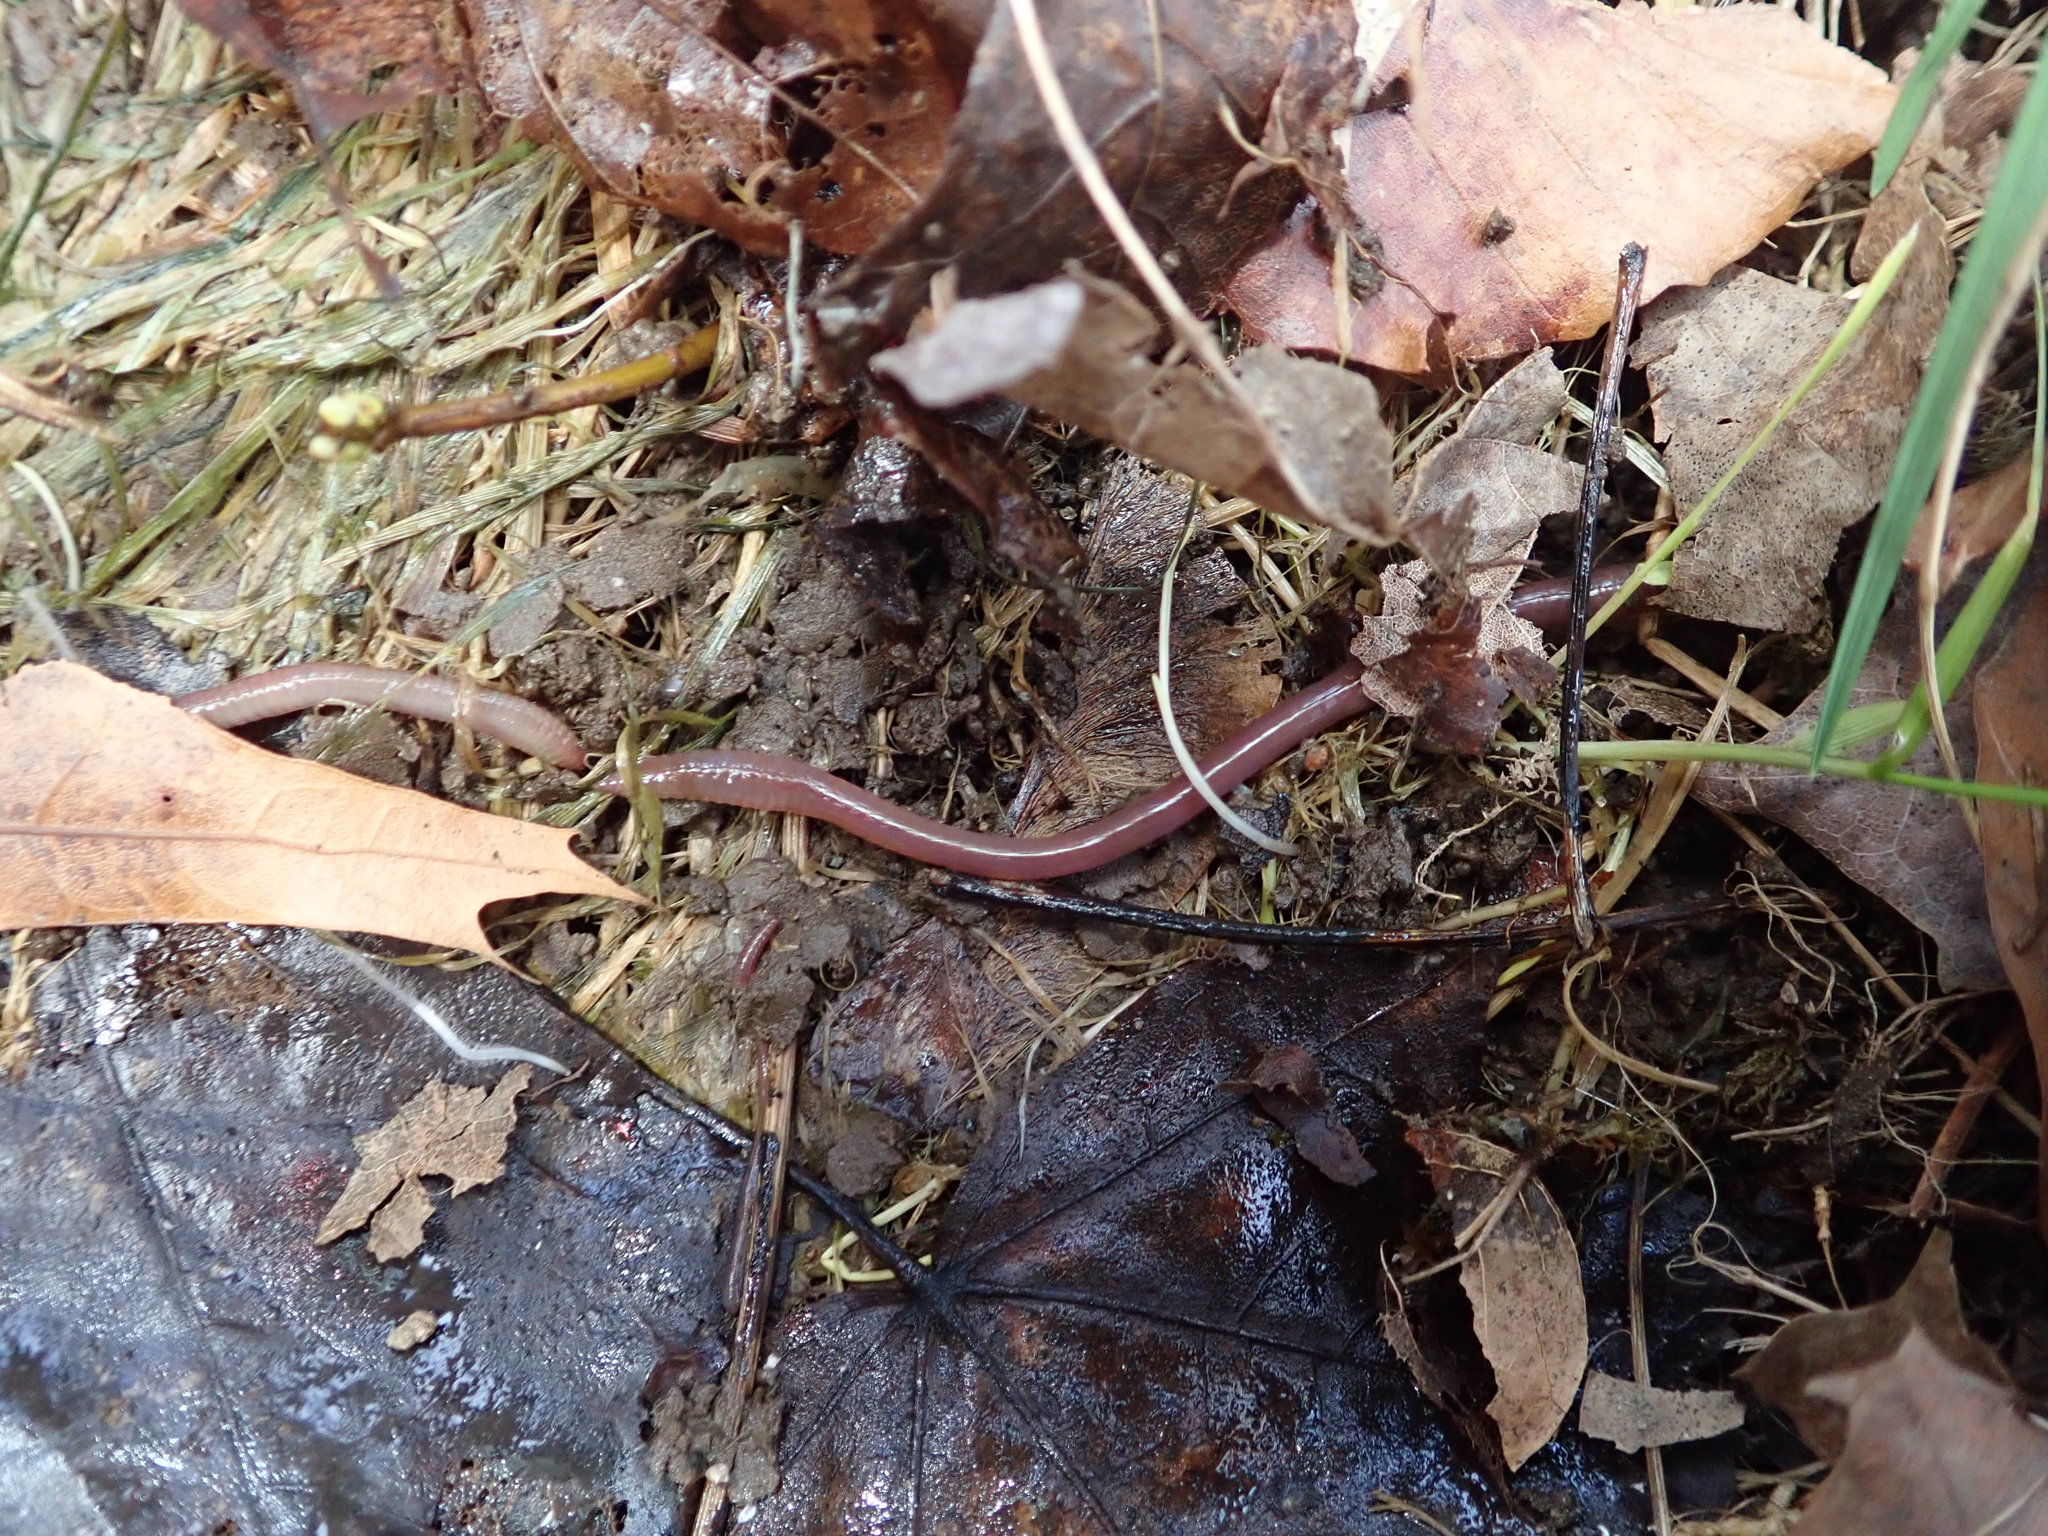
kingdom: Animalia
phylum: Annelida
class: Clitellata
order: Crassiclitellata
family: Lumbricidae
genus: Lumbricus
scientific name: Lumbricus terrestris
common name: Common earthworm
